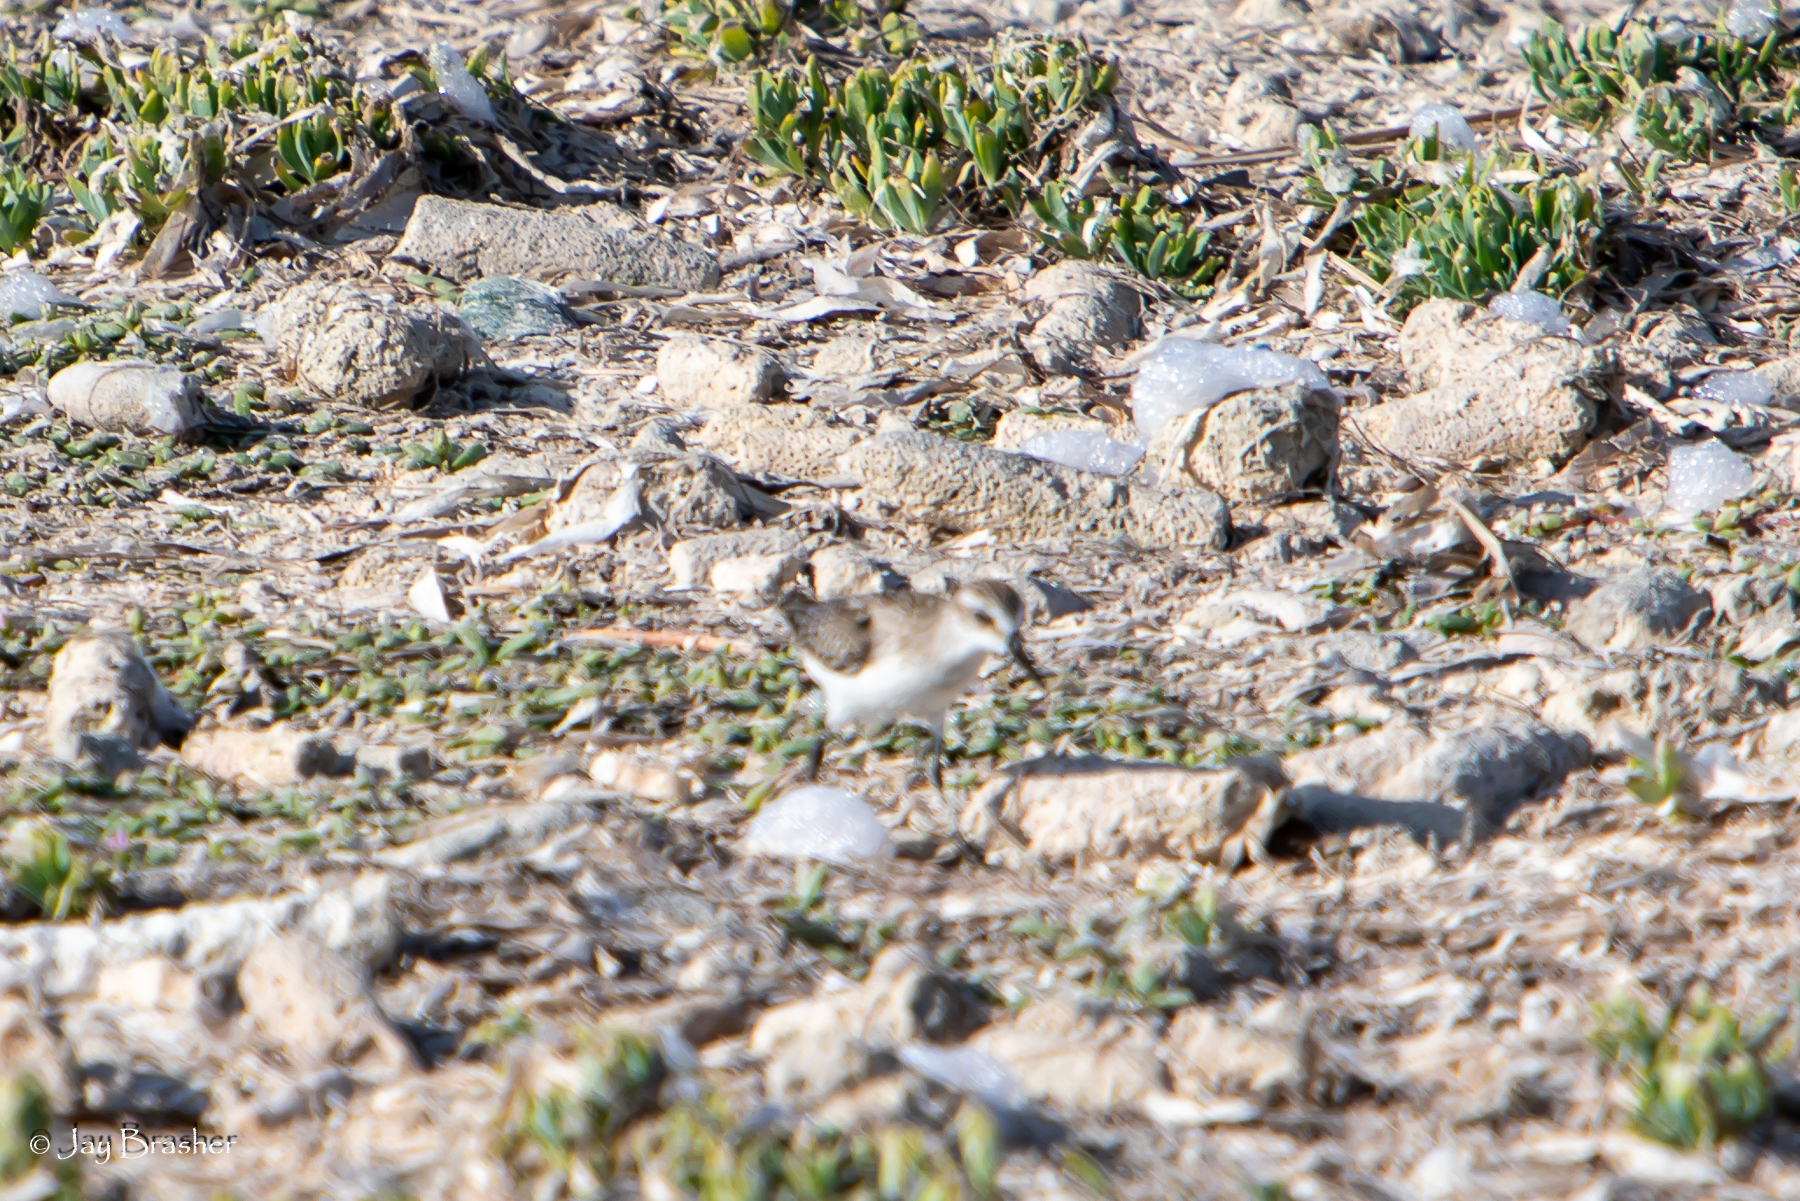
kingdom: Animalia
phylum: Chordata
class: Aves
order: Charadriiformes
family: Scolopacidae
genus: Calidris
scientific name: Calidris pusilla
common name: Semipalmated sandpiper
